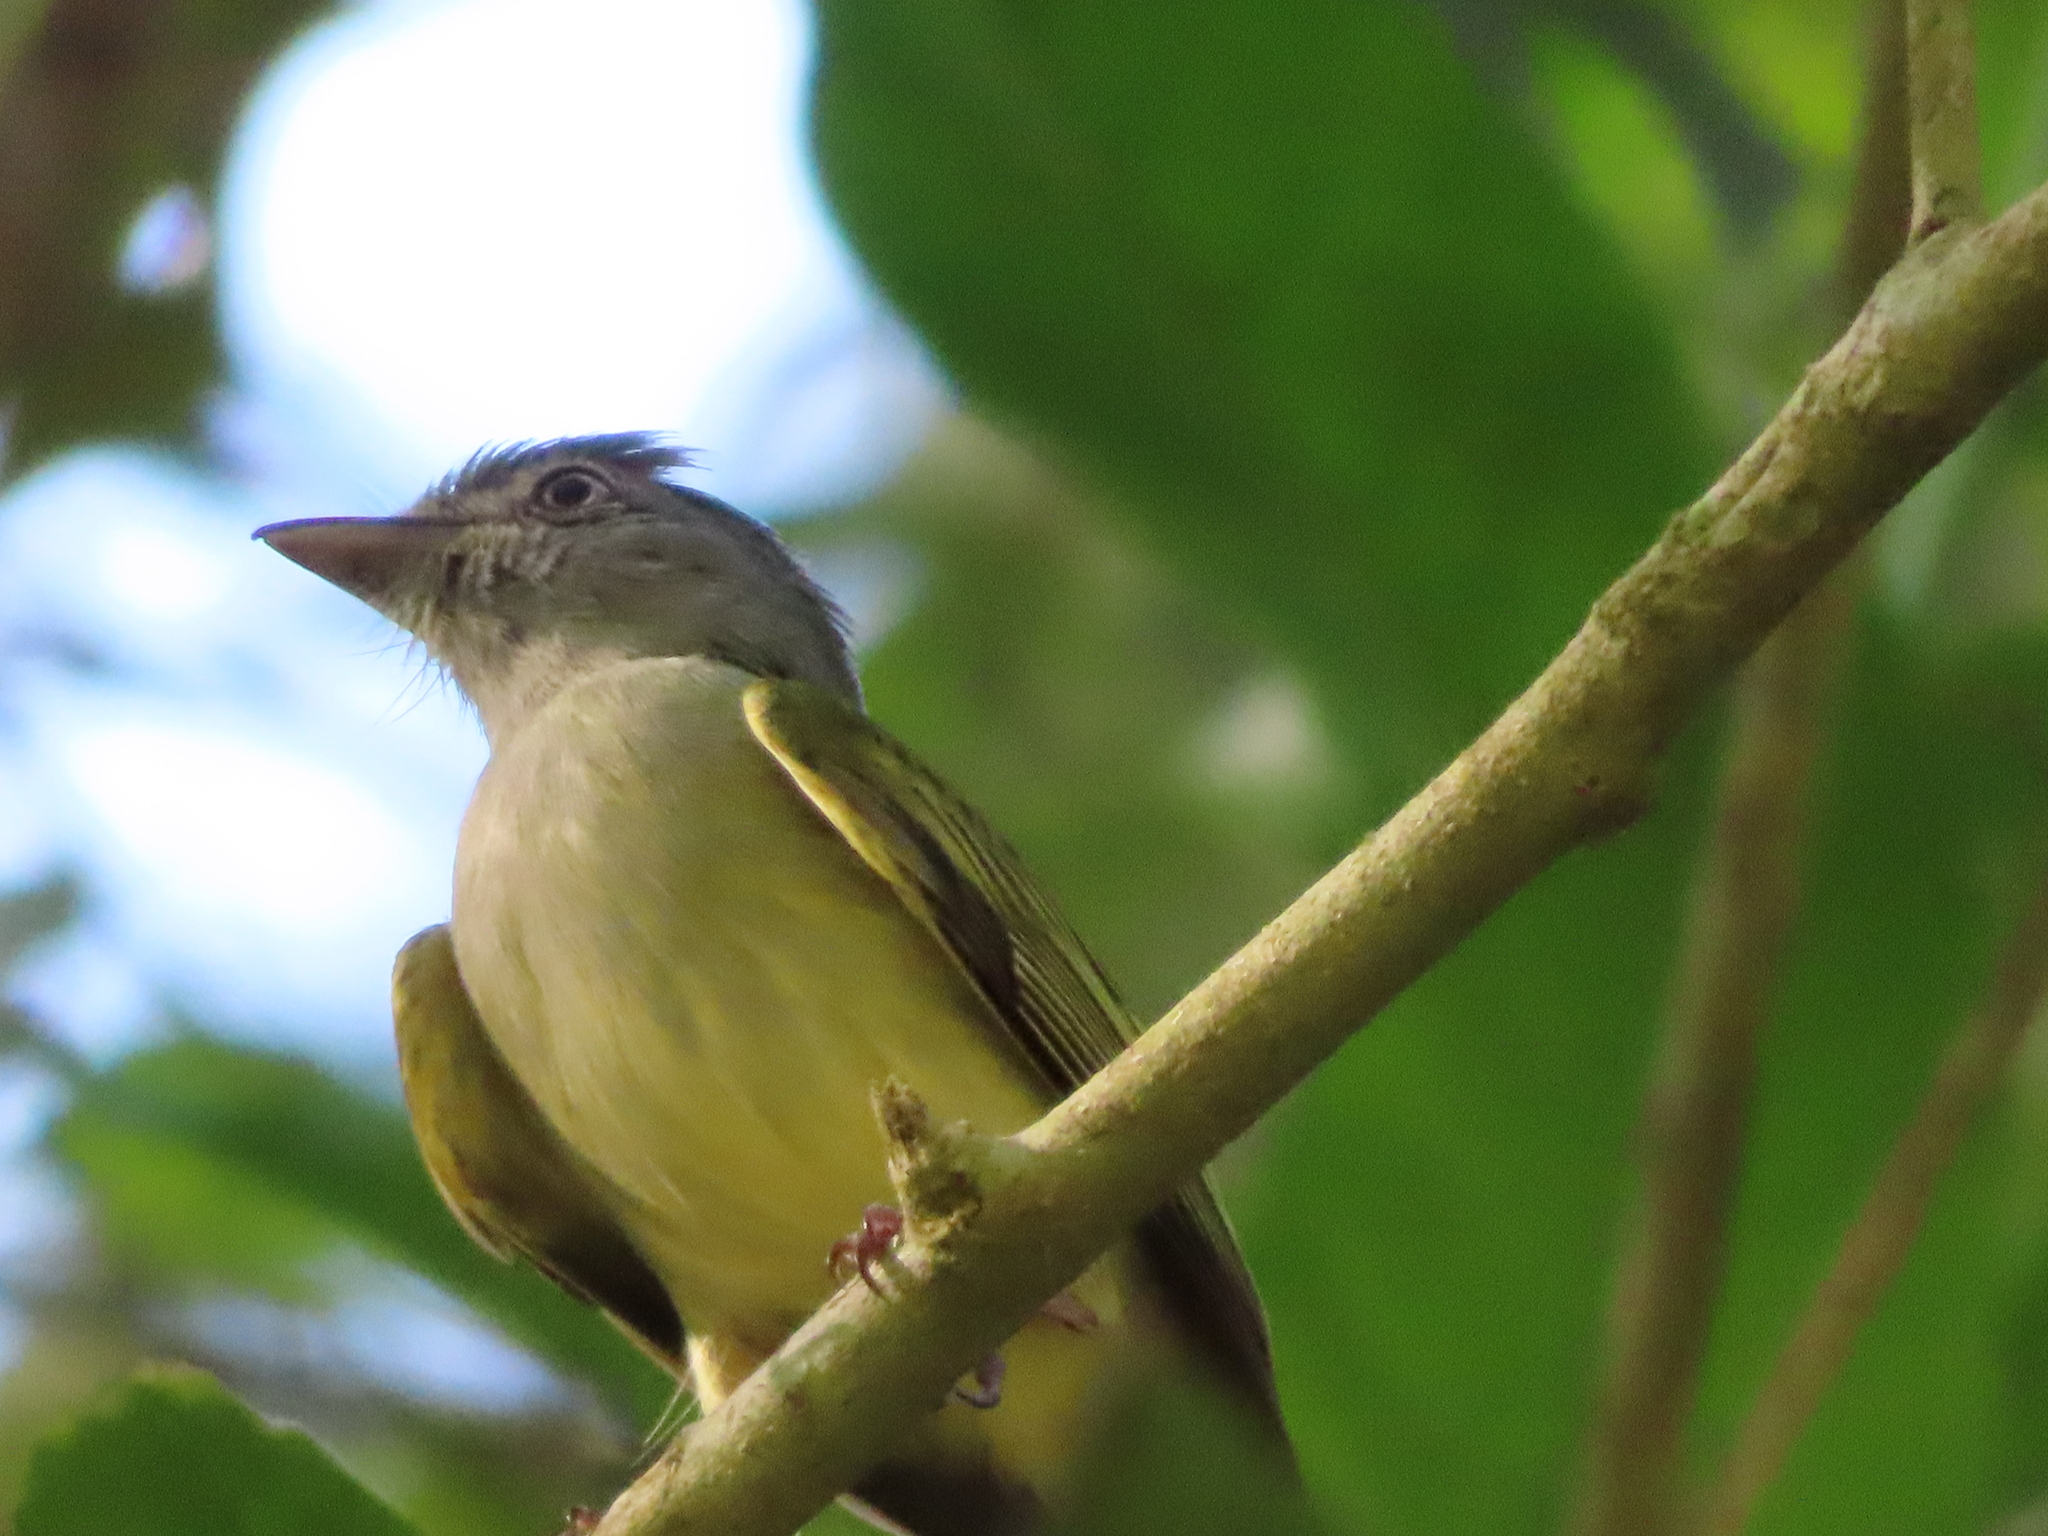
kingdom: Animalia
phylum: Chordata
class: Aves
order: Passeriformes
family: Tyrannidae
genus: Tolmomyias
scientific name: Tolmomyias sulphurescens
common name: Yellow-olive flycatcher
